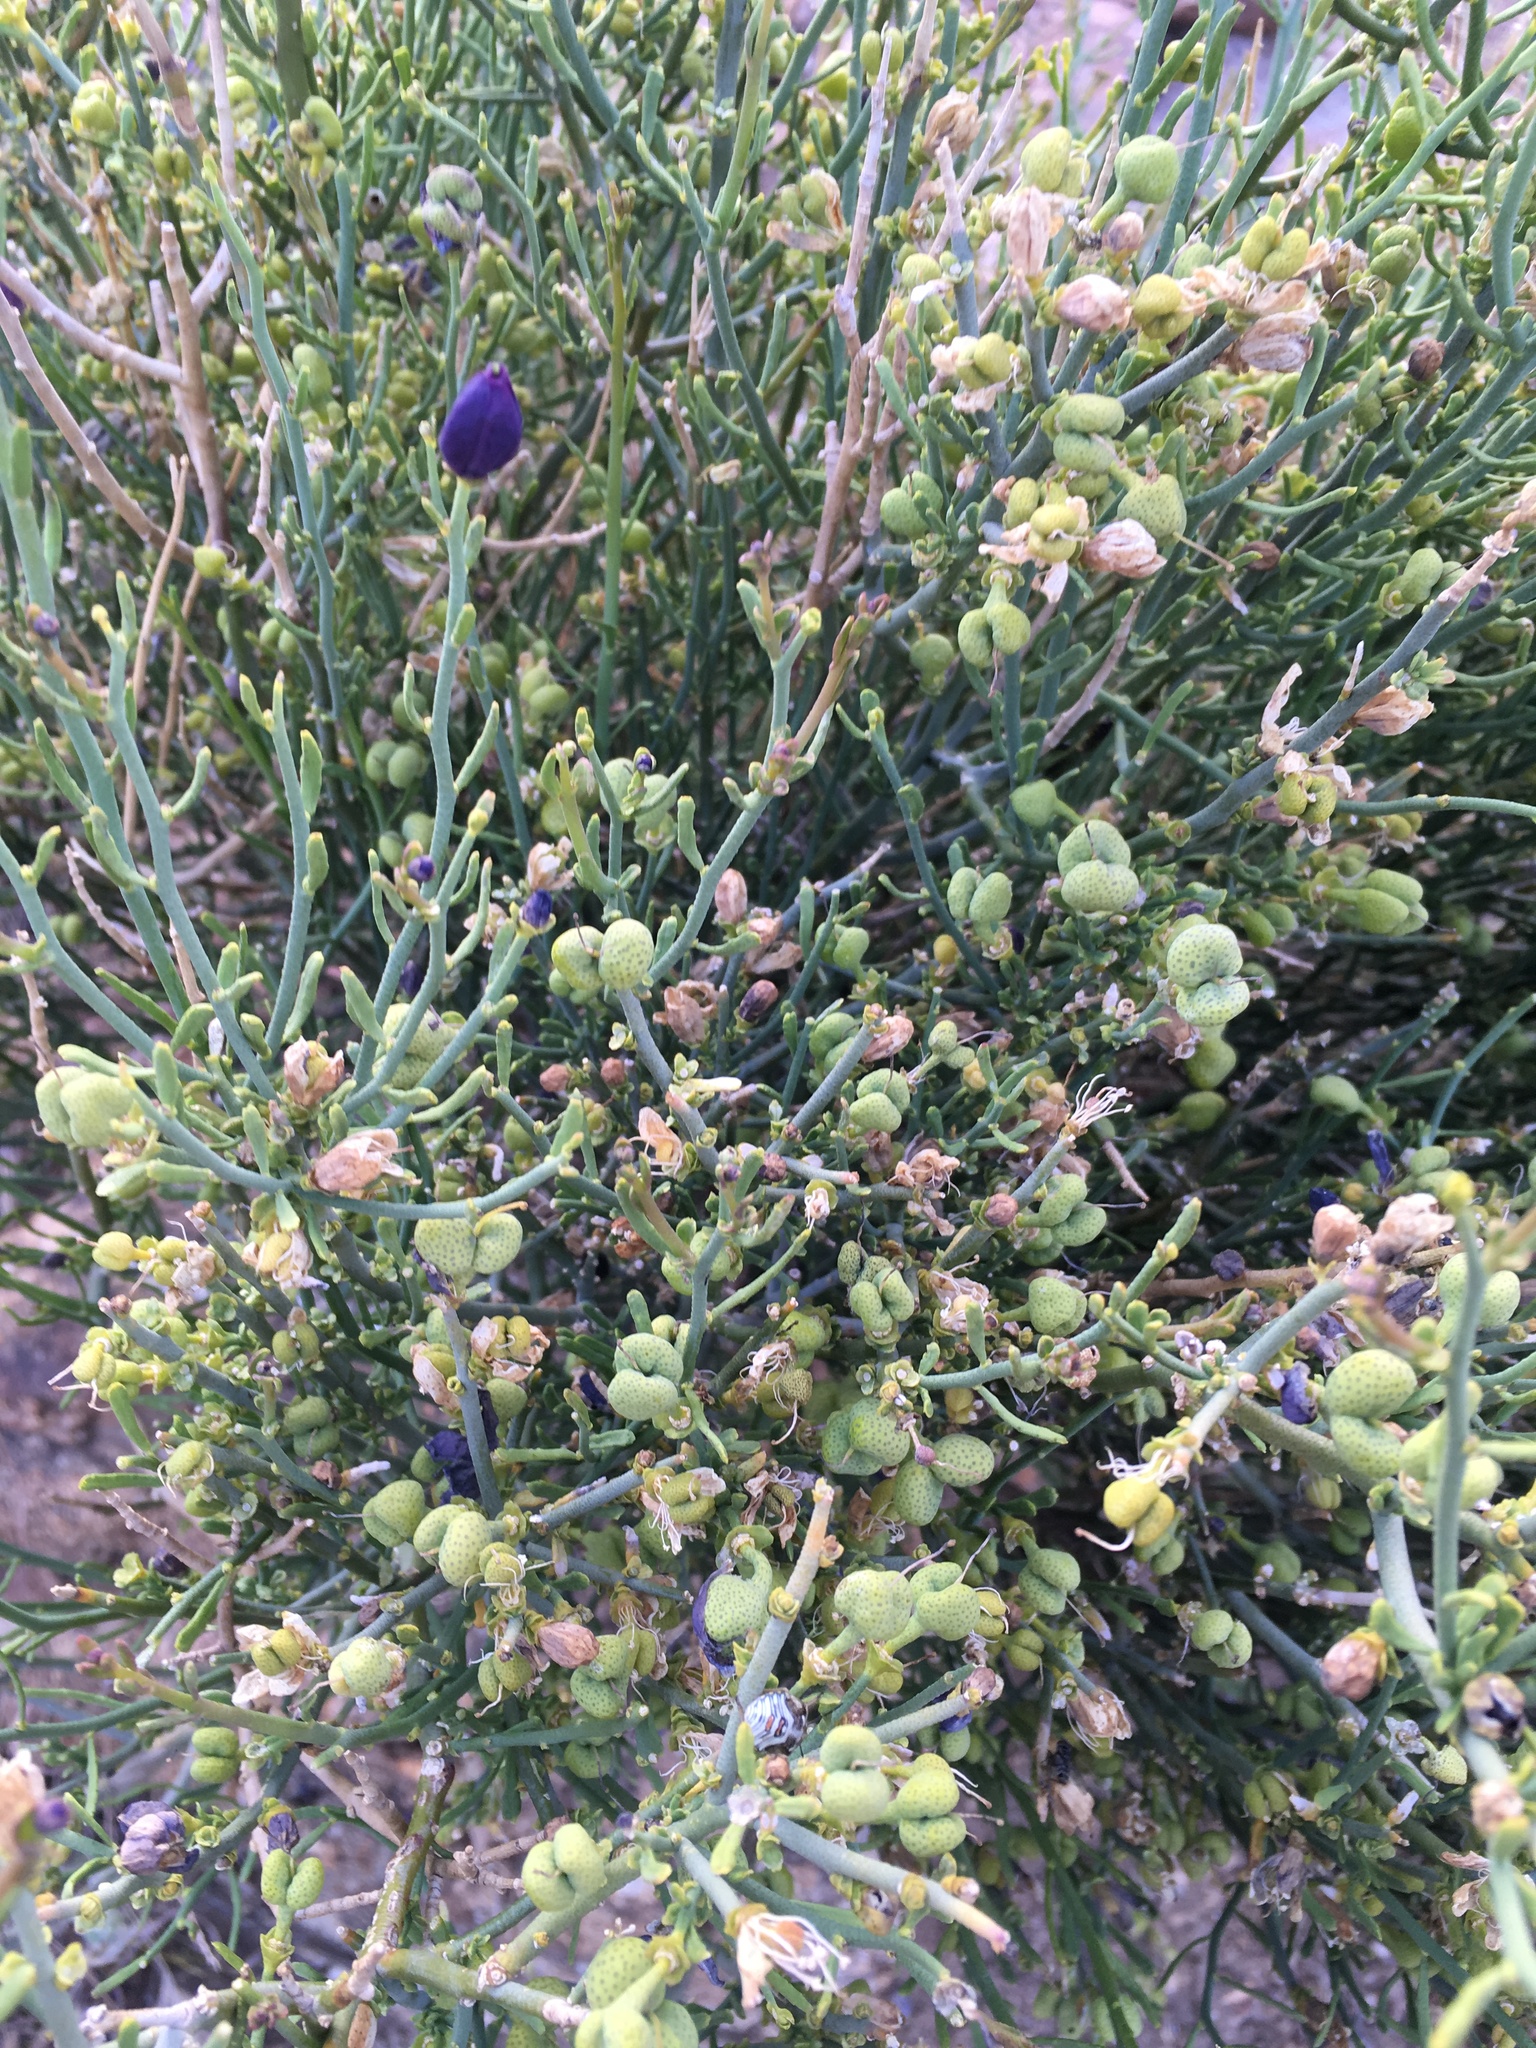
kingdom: Plantae
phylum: Tracheophyta
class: Magnoliopsida
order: Sapindales
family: Rutaceae
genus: Thamnosma
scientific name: Thamnosma montana
